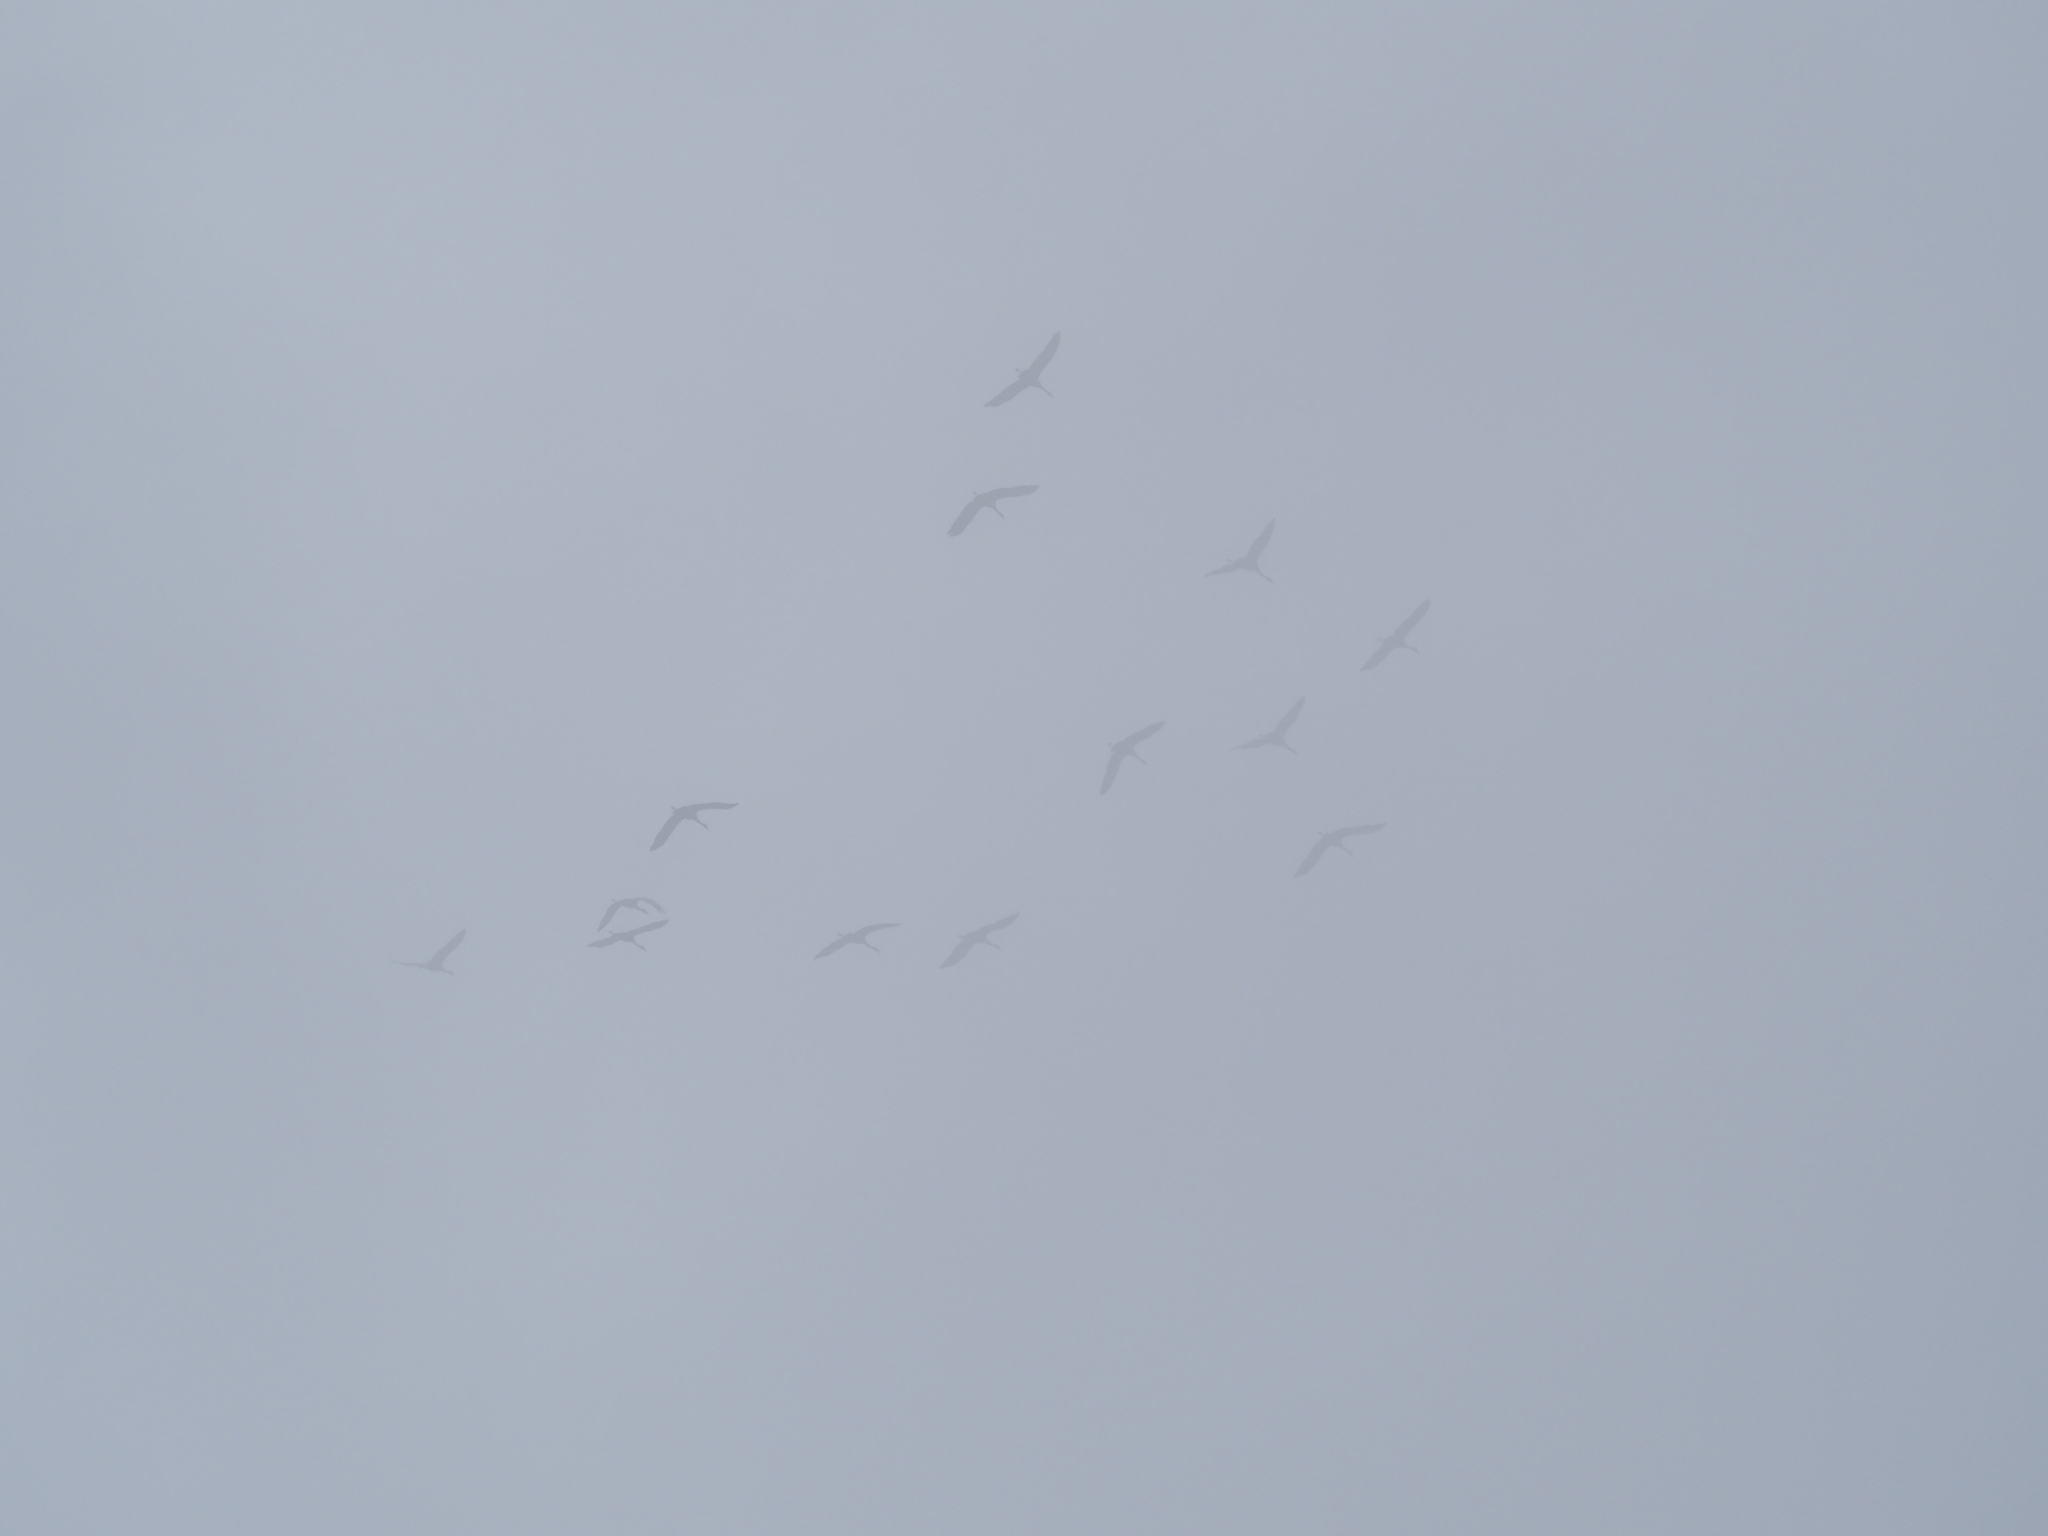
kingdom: Animalia
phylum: Chordata
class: Aves
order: Gruiformes
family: Gruidae
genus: Grus
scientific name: Grus canadensis
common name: Sandhill crane
